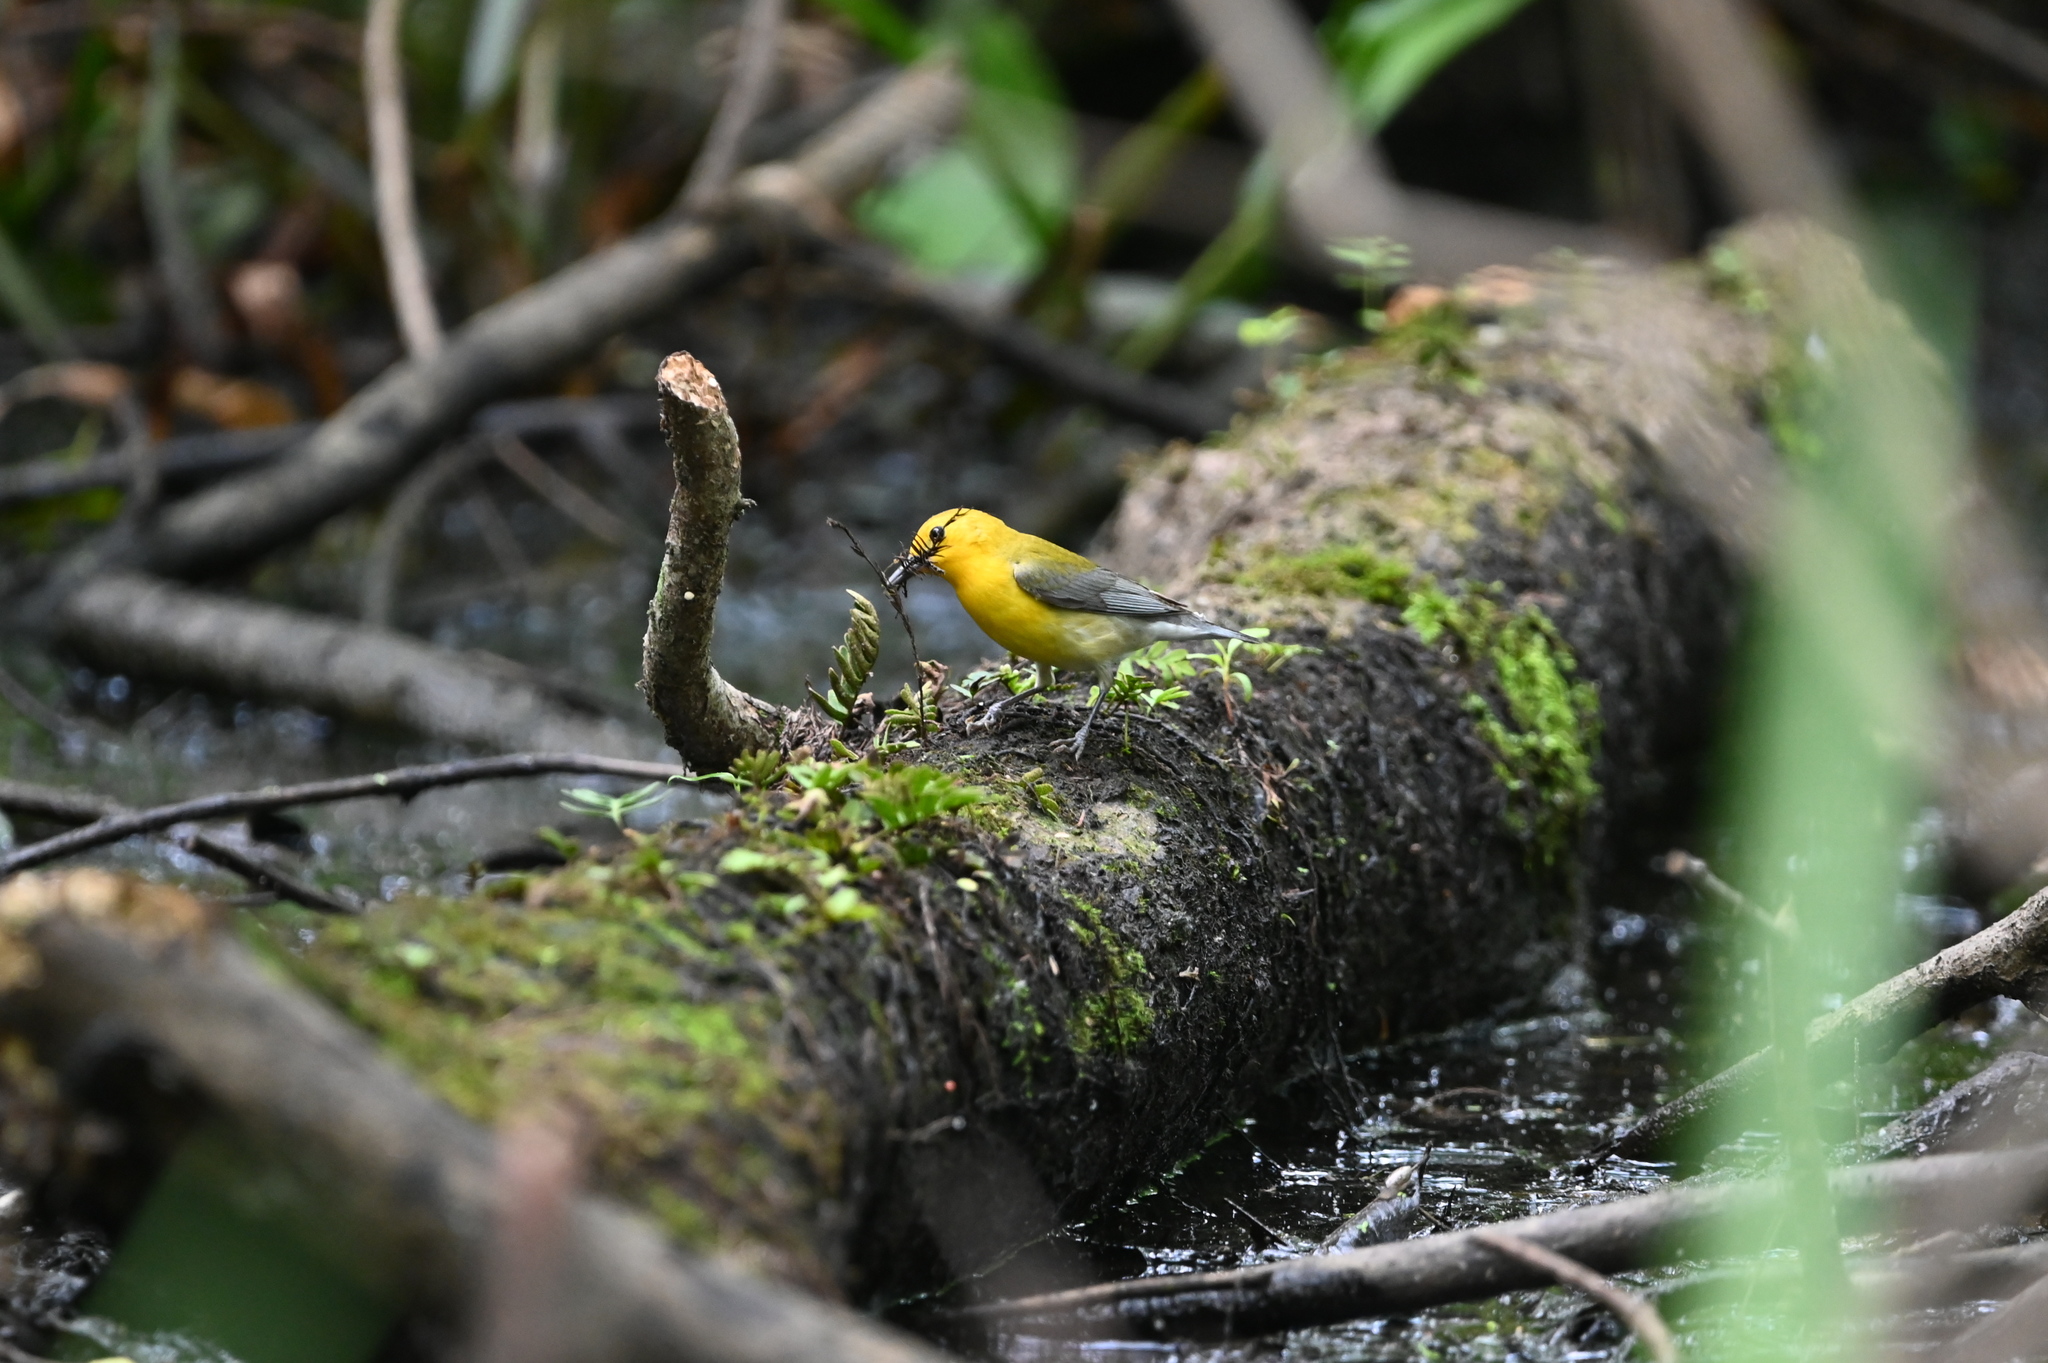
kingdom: Animalia
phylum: Chordata
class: Aves
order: Passeriformes
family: Parulidae
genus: Protonotaria
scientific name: Protonotaria citrea
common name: Prothonotary warbler
